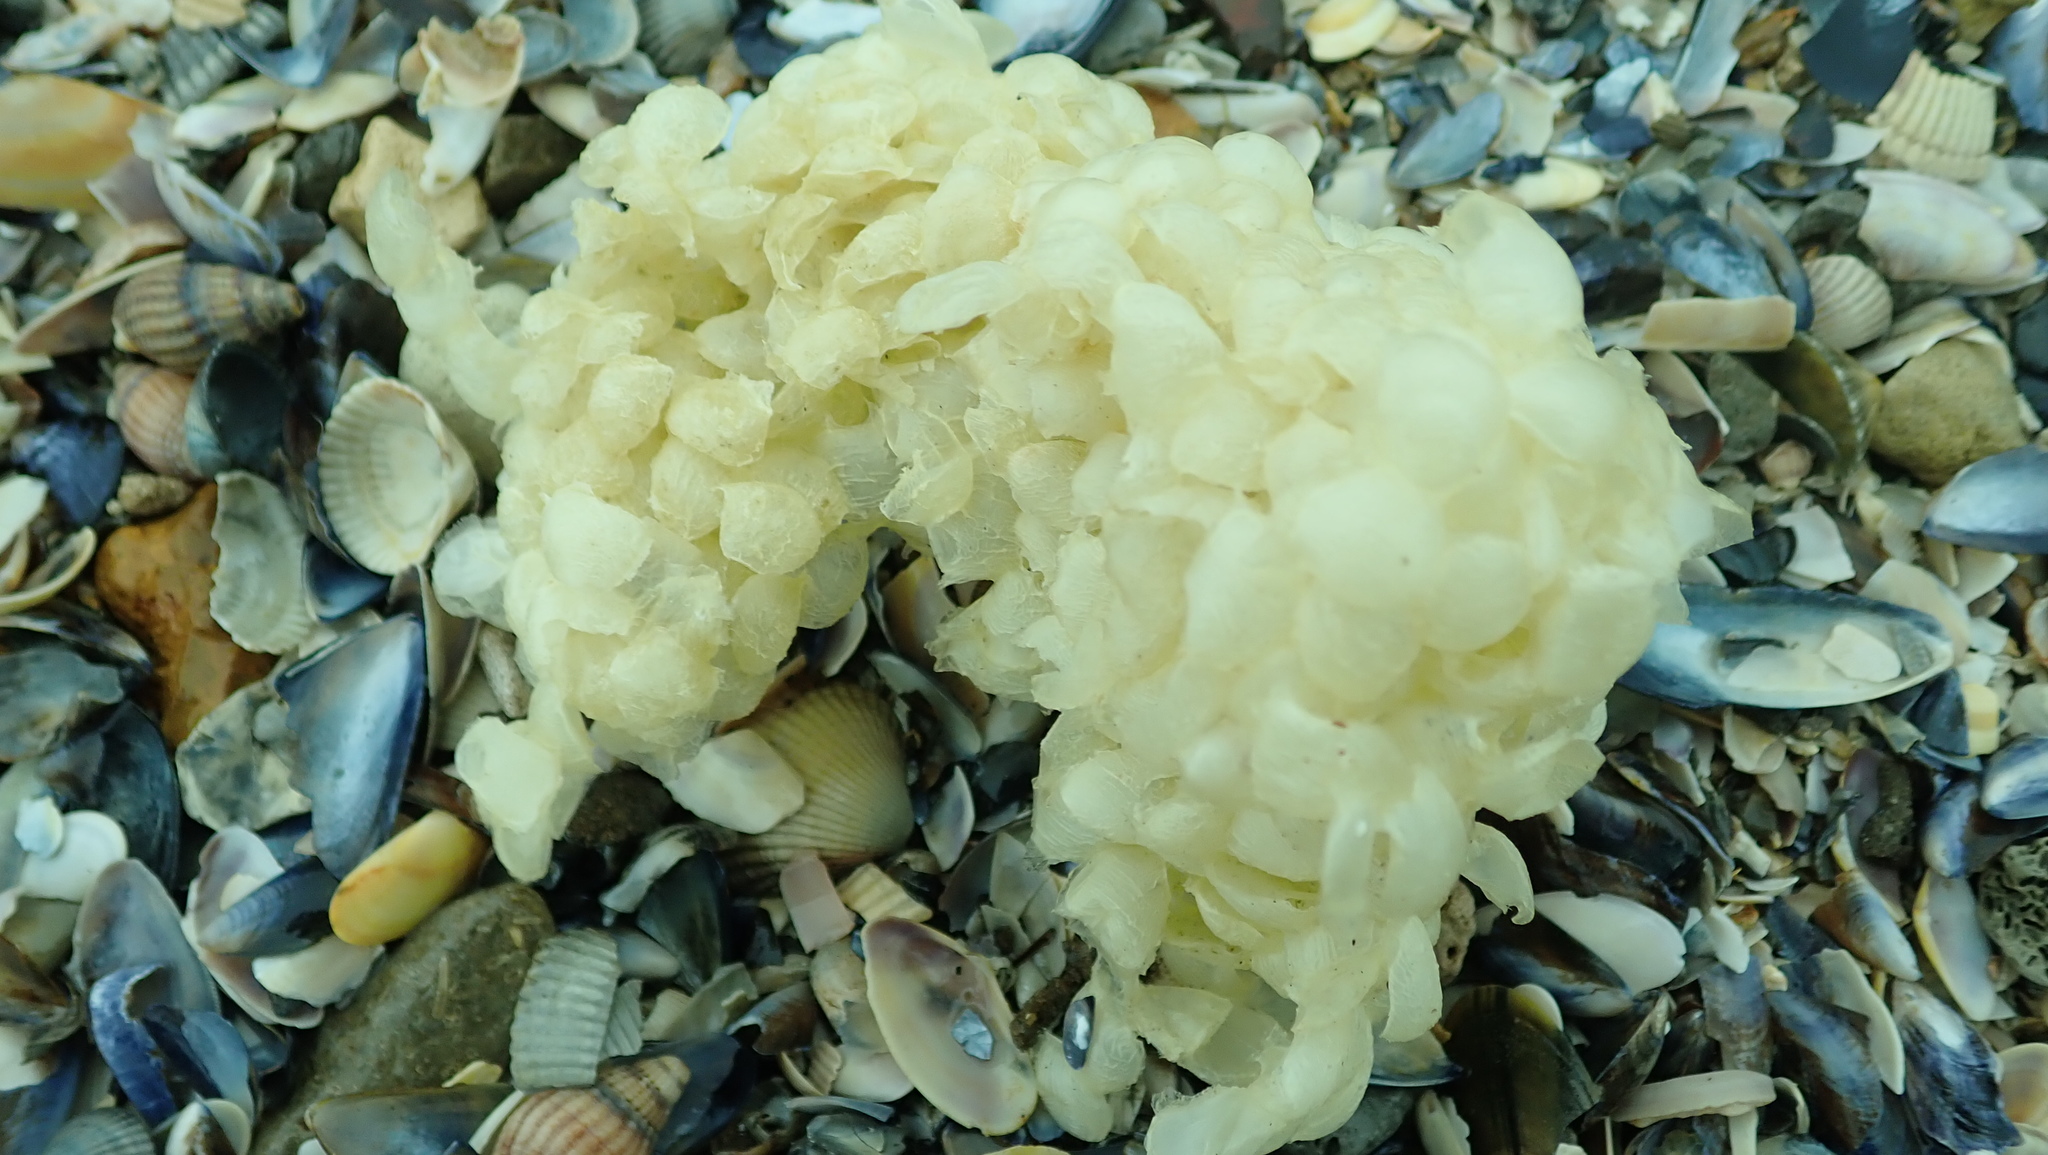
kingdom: Animalia
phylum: Mollusca
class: Gastropoda
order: Neogastropoda
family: Buccinidae
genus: Buccinum
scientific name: Buccinum undatum
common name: Common whelk
